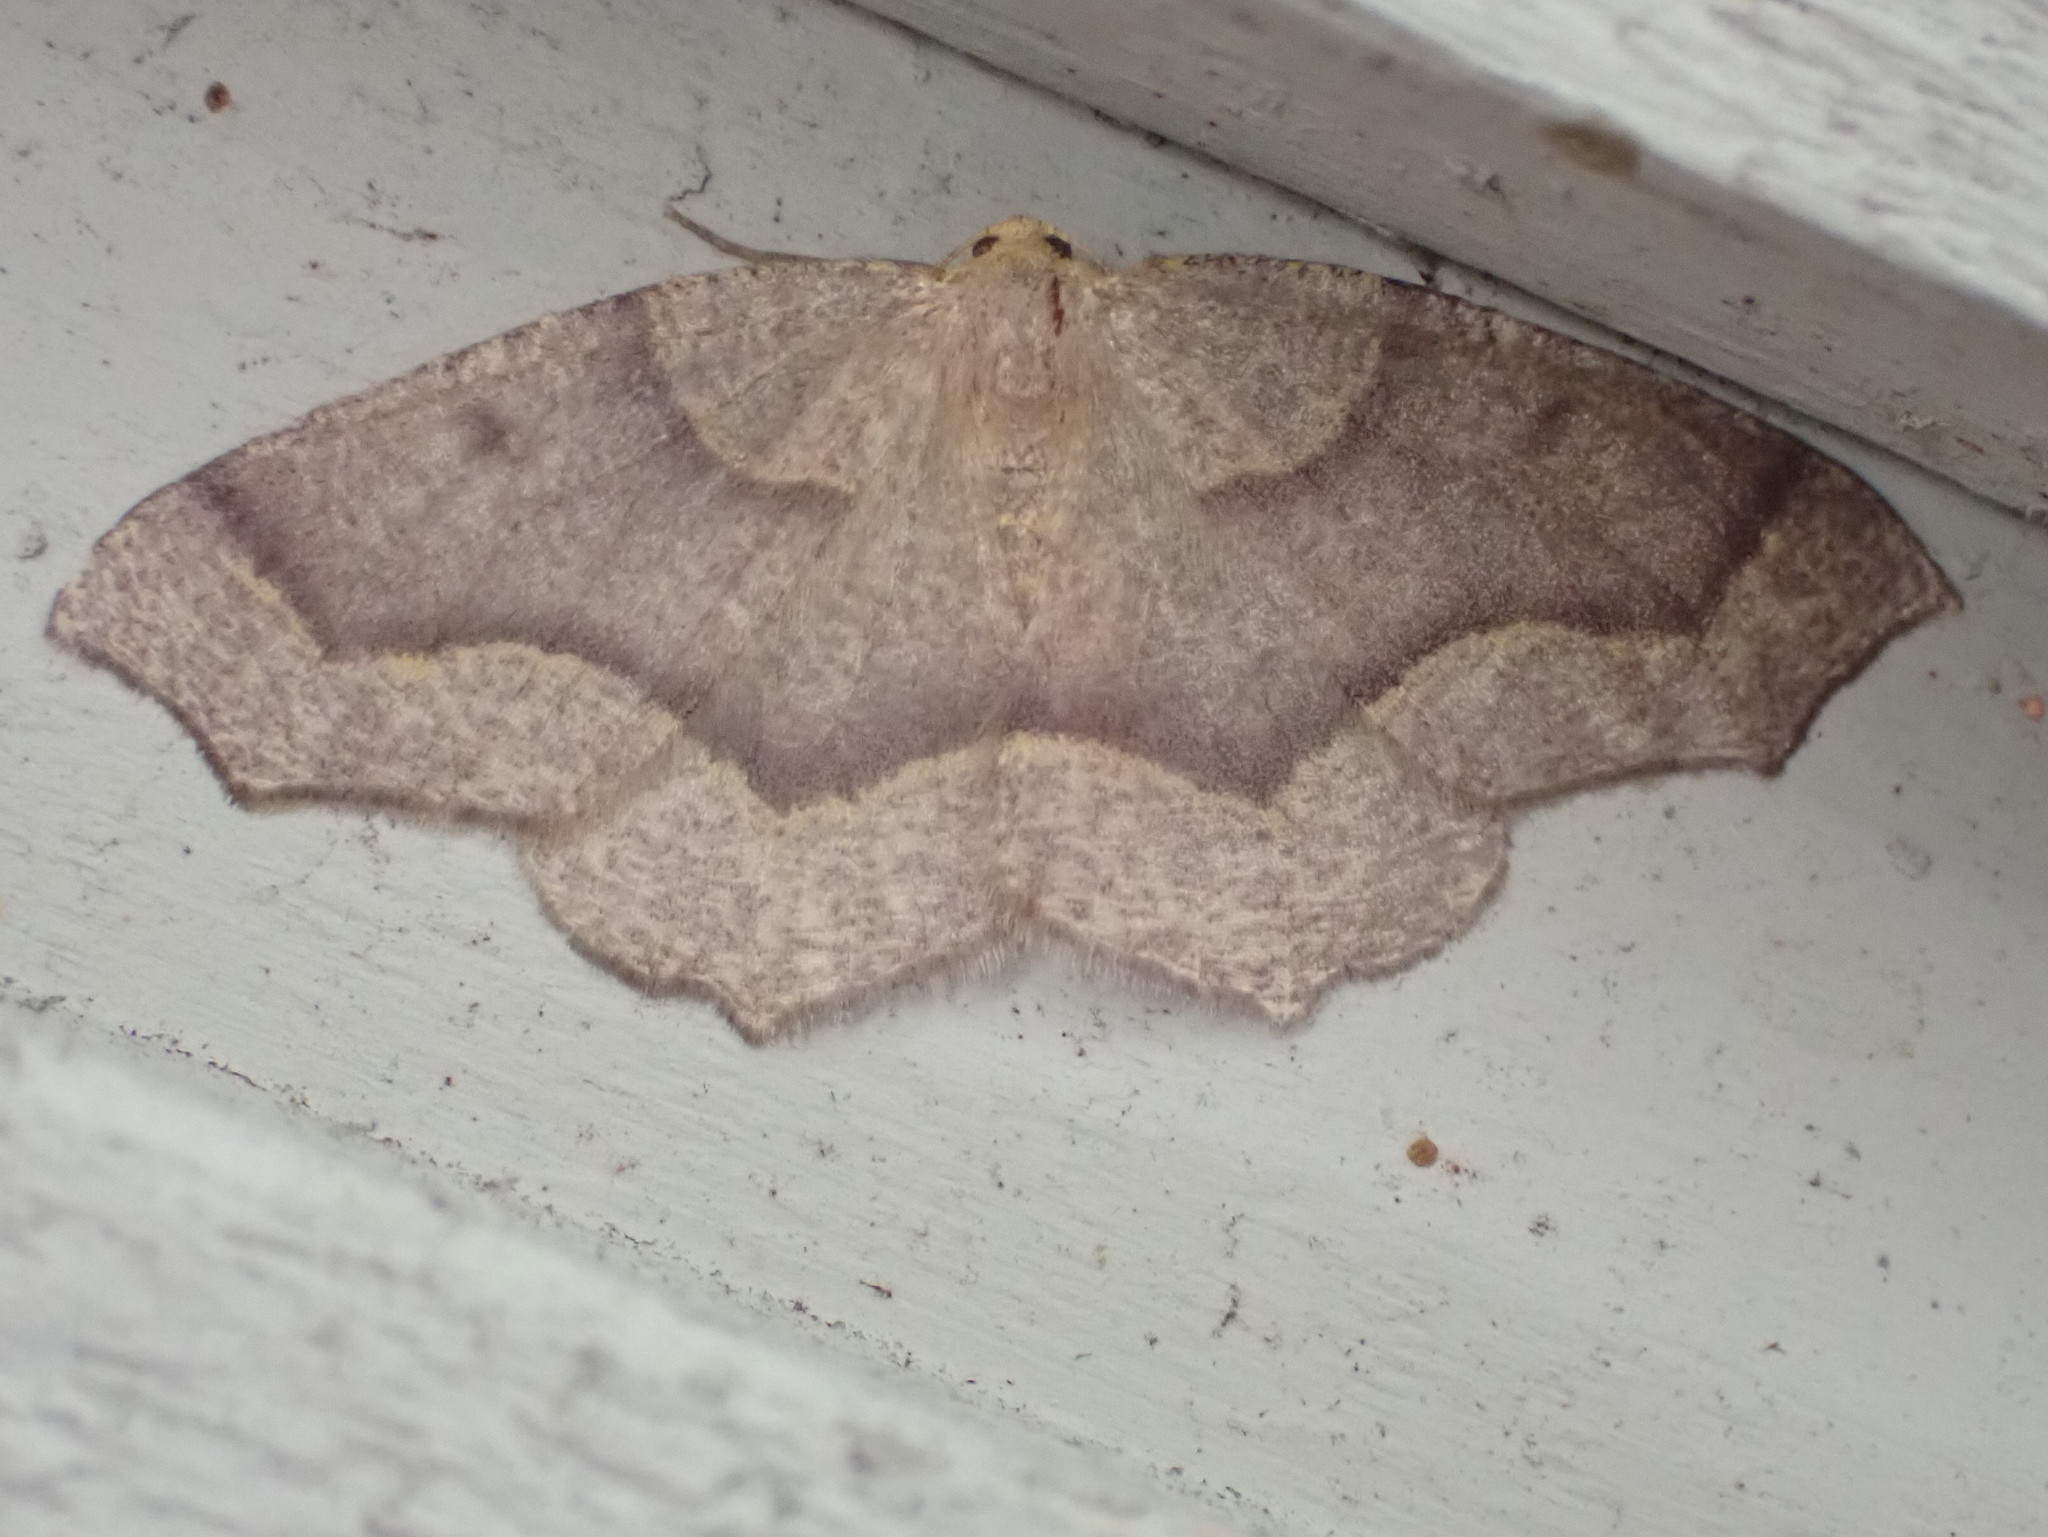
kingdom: Animalia
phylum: Arthropoda
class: Insecta
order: Lepidoptera
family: Geometridae
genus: Lambdina
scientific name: Lambdina fiscellaria
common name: Hemlock looper
